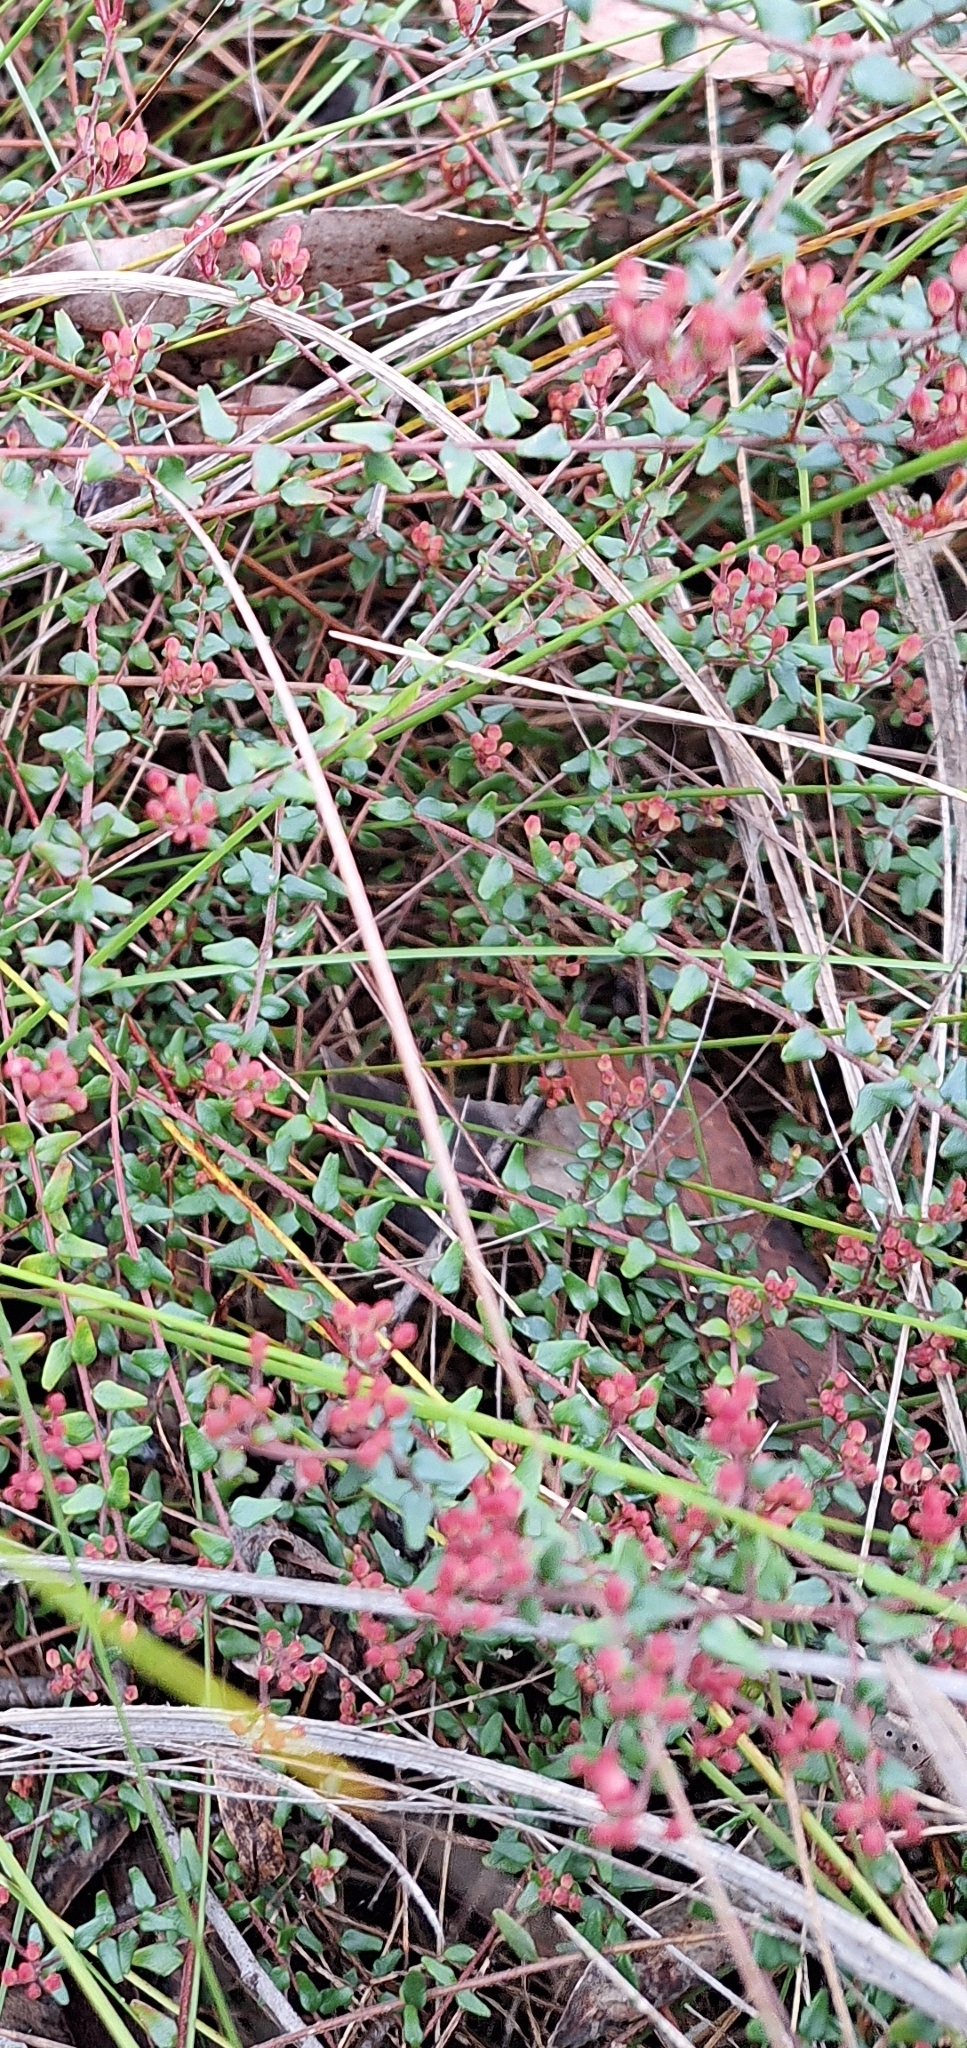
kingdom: Plantae
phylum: Tracheophyta
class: Magnoliopsida
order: Sapindales
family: Rutaceae
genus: Leionema
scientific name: Leionema hillebrandii
